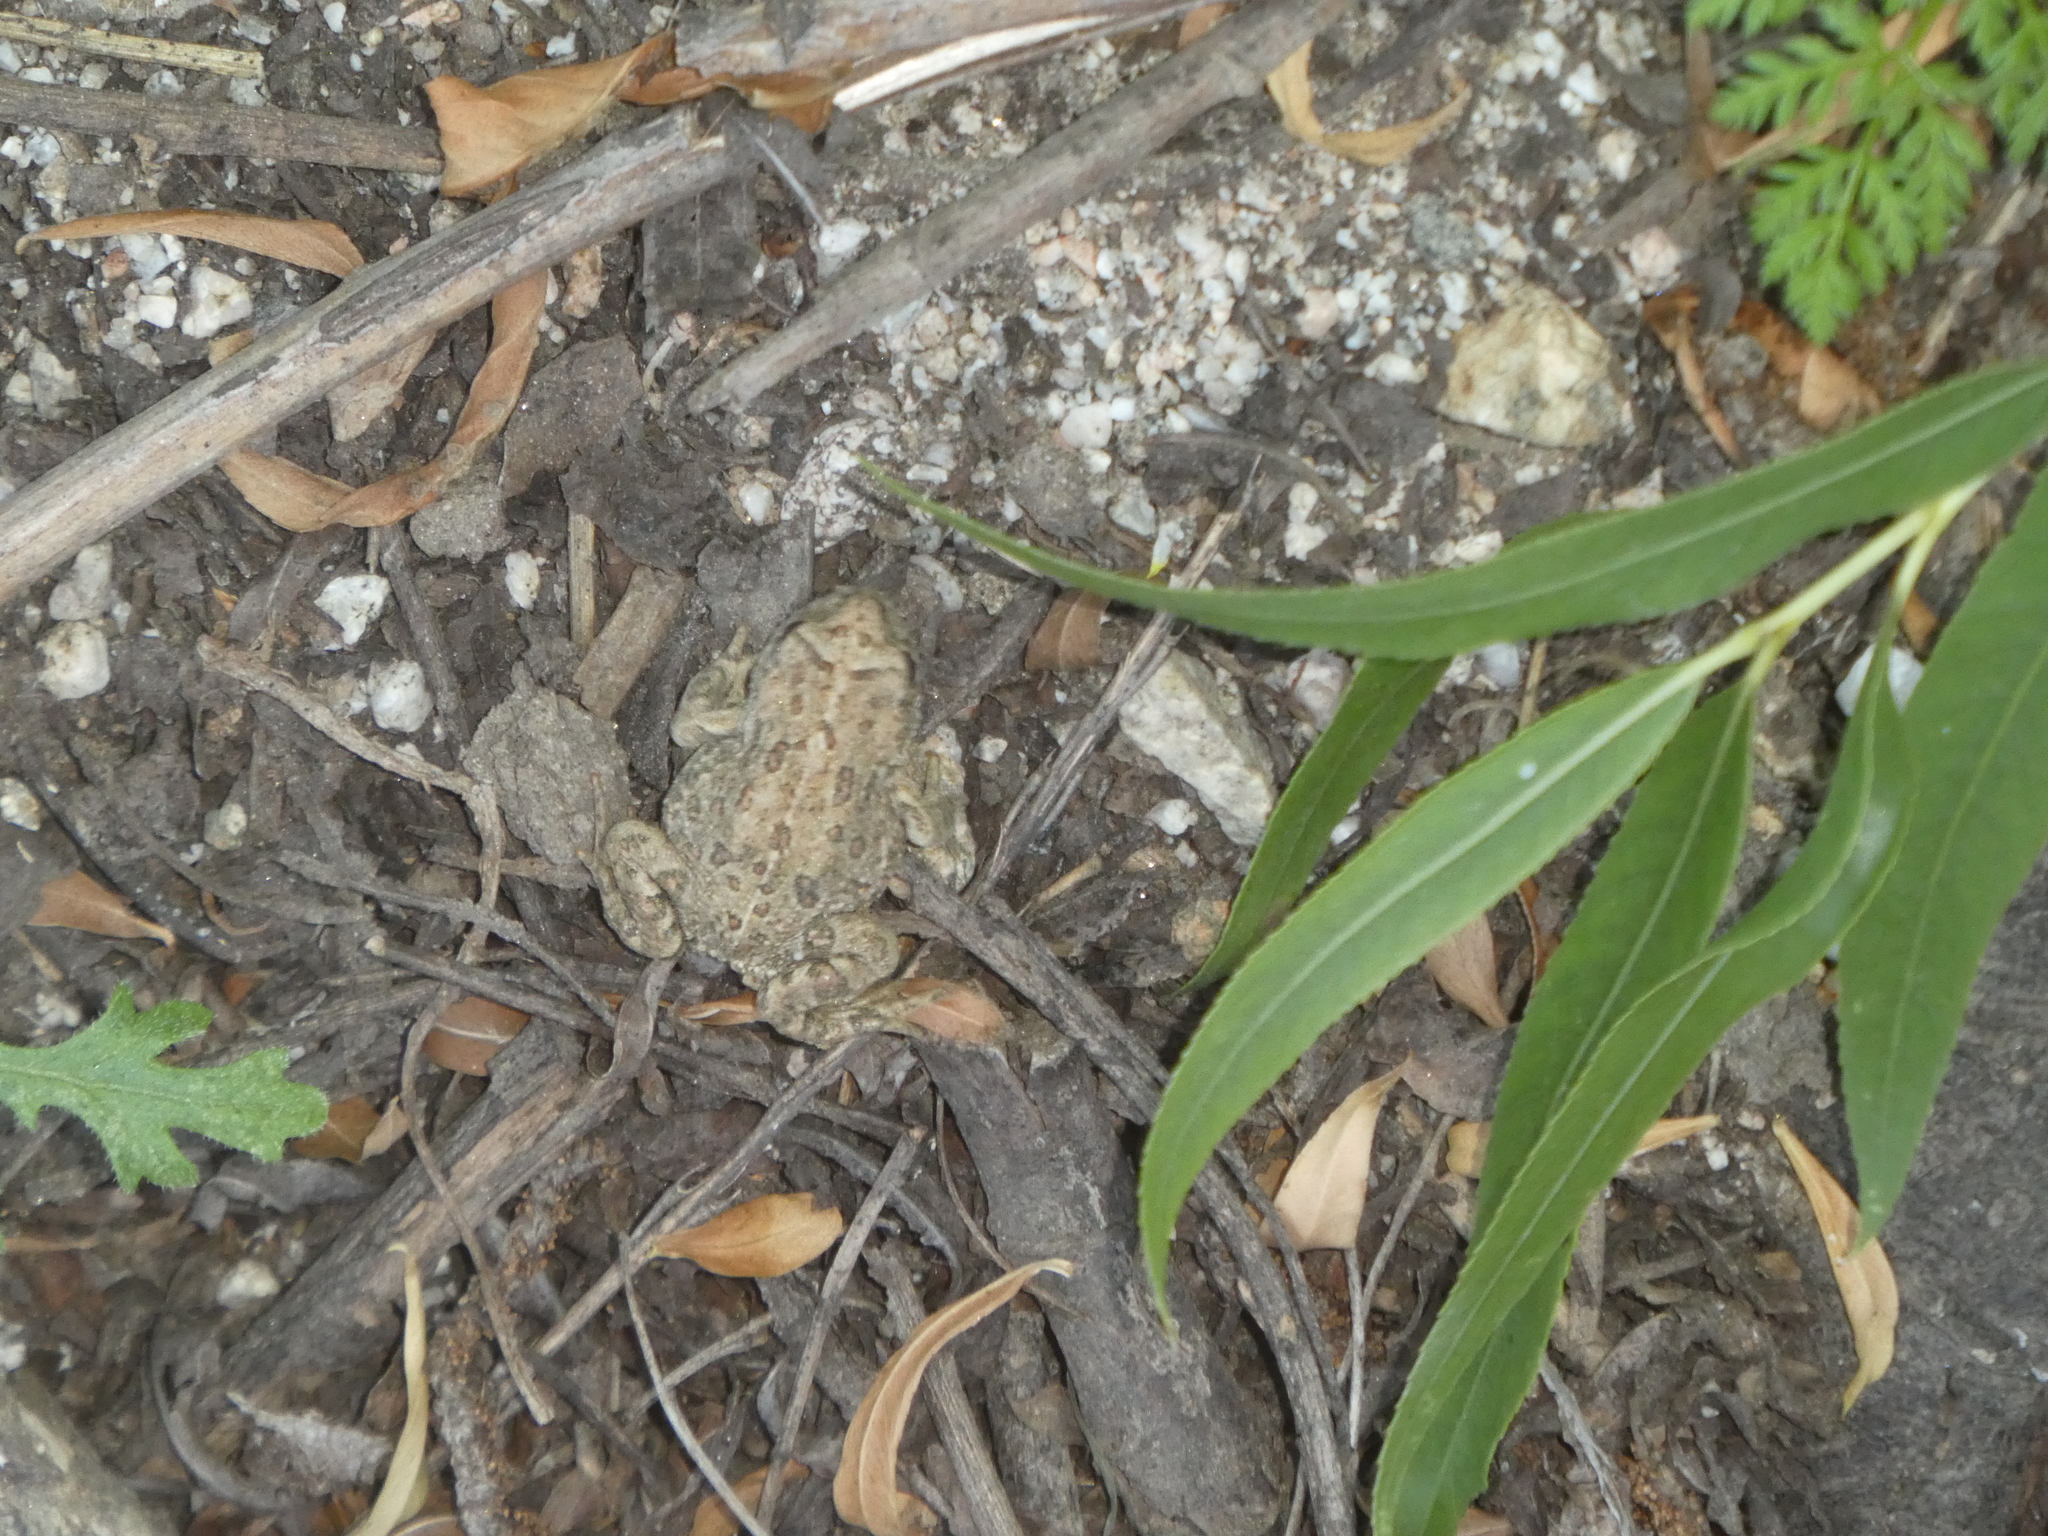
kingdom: Animalia
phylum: Chordata
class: Amphibia
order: Anura
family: Bufonidae
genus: Anaxyrus
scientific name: Anaxyrus boreas
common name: Western toad
